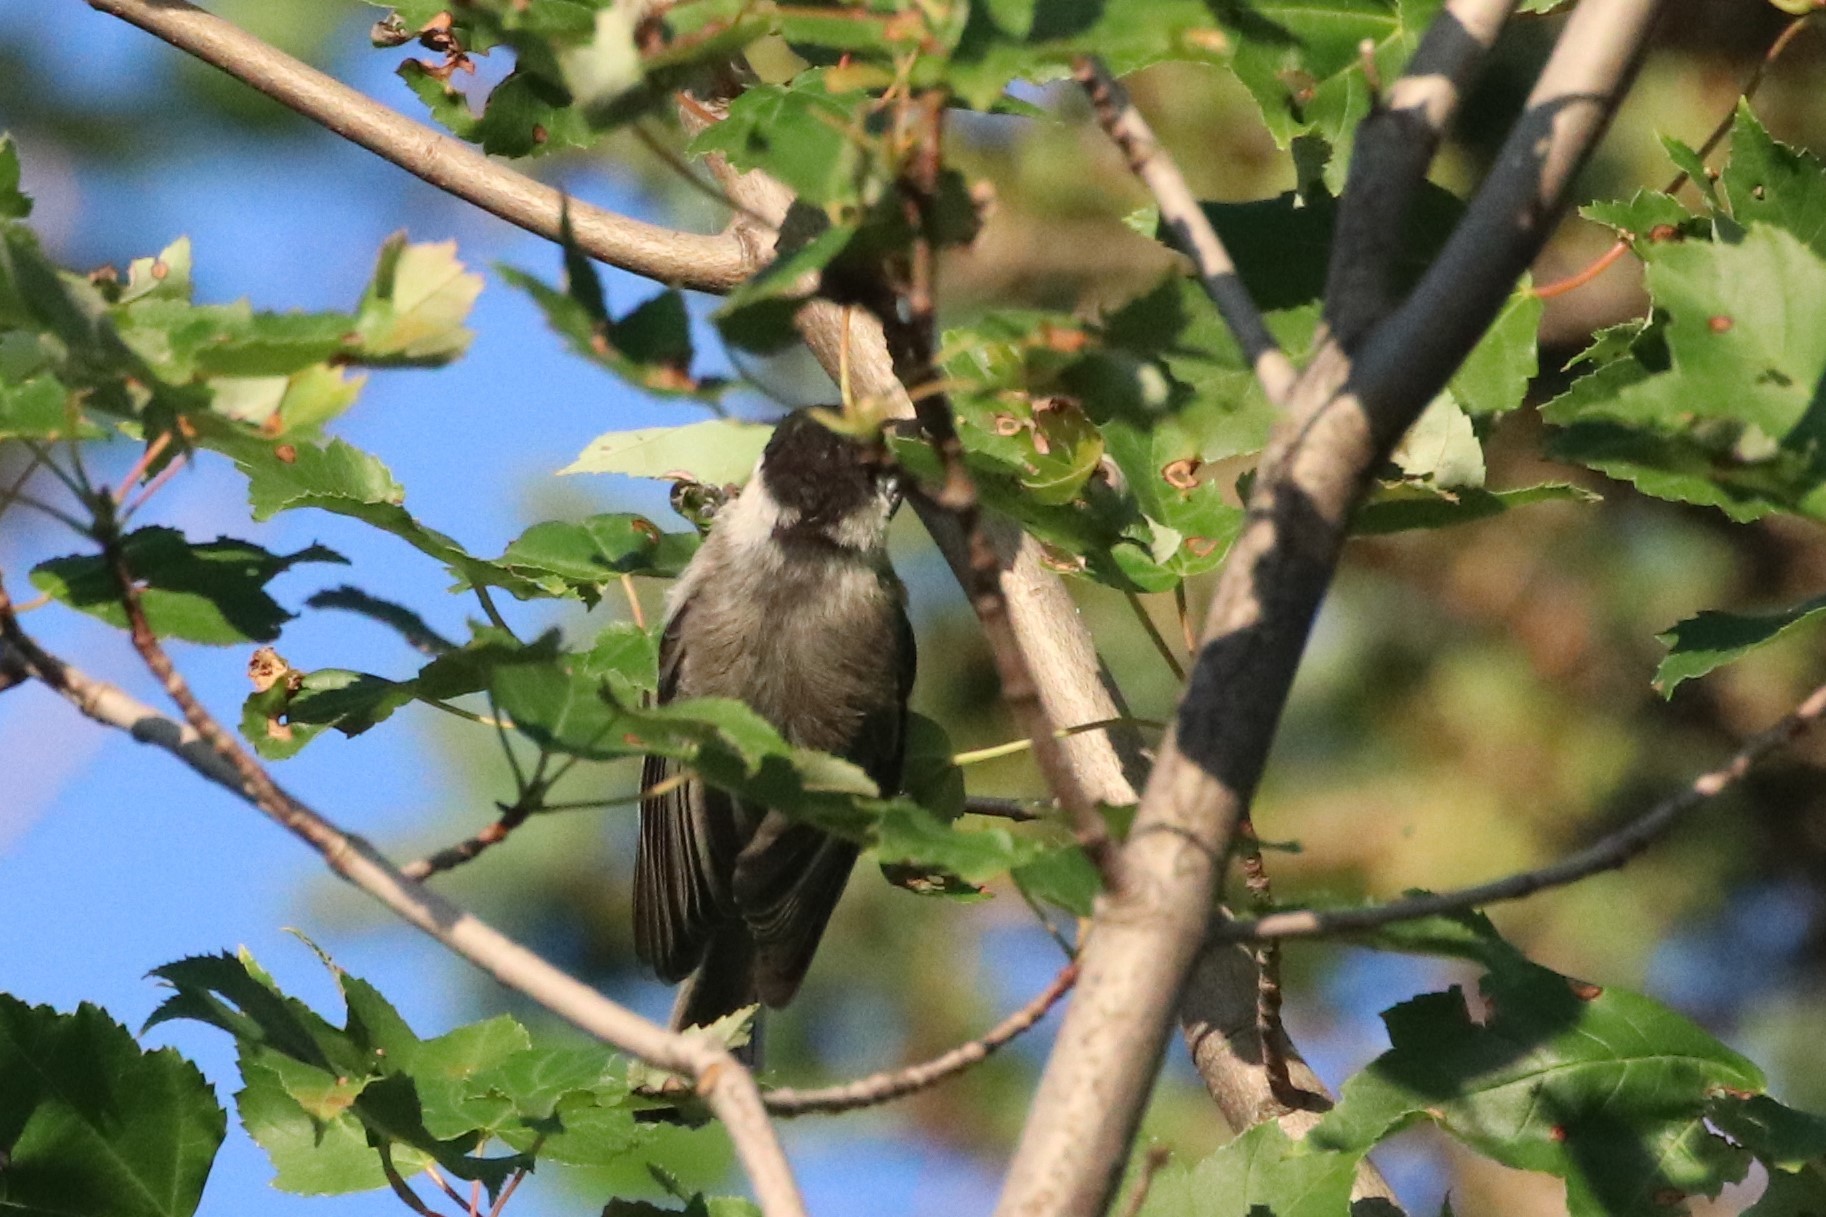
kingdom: Animalia
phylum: Chordata
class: Aves
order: Passeriformes
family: Paridae
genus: Poecile
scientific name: Poecile atricapillus
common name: Black-capped chickadee
